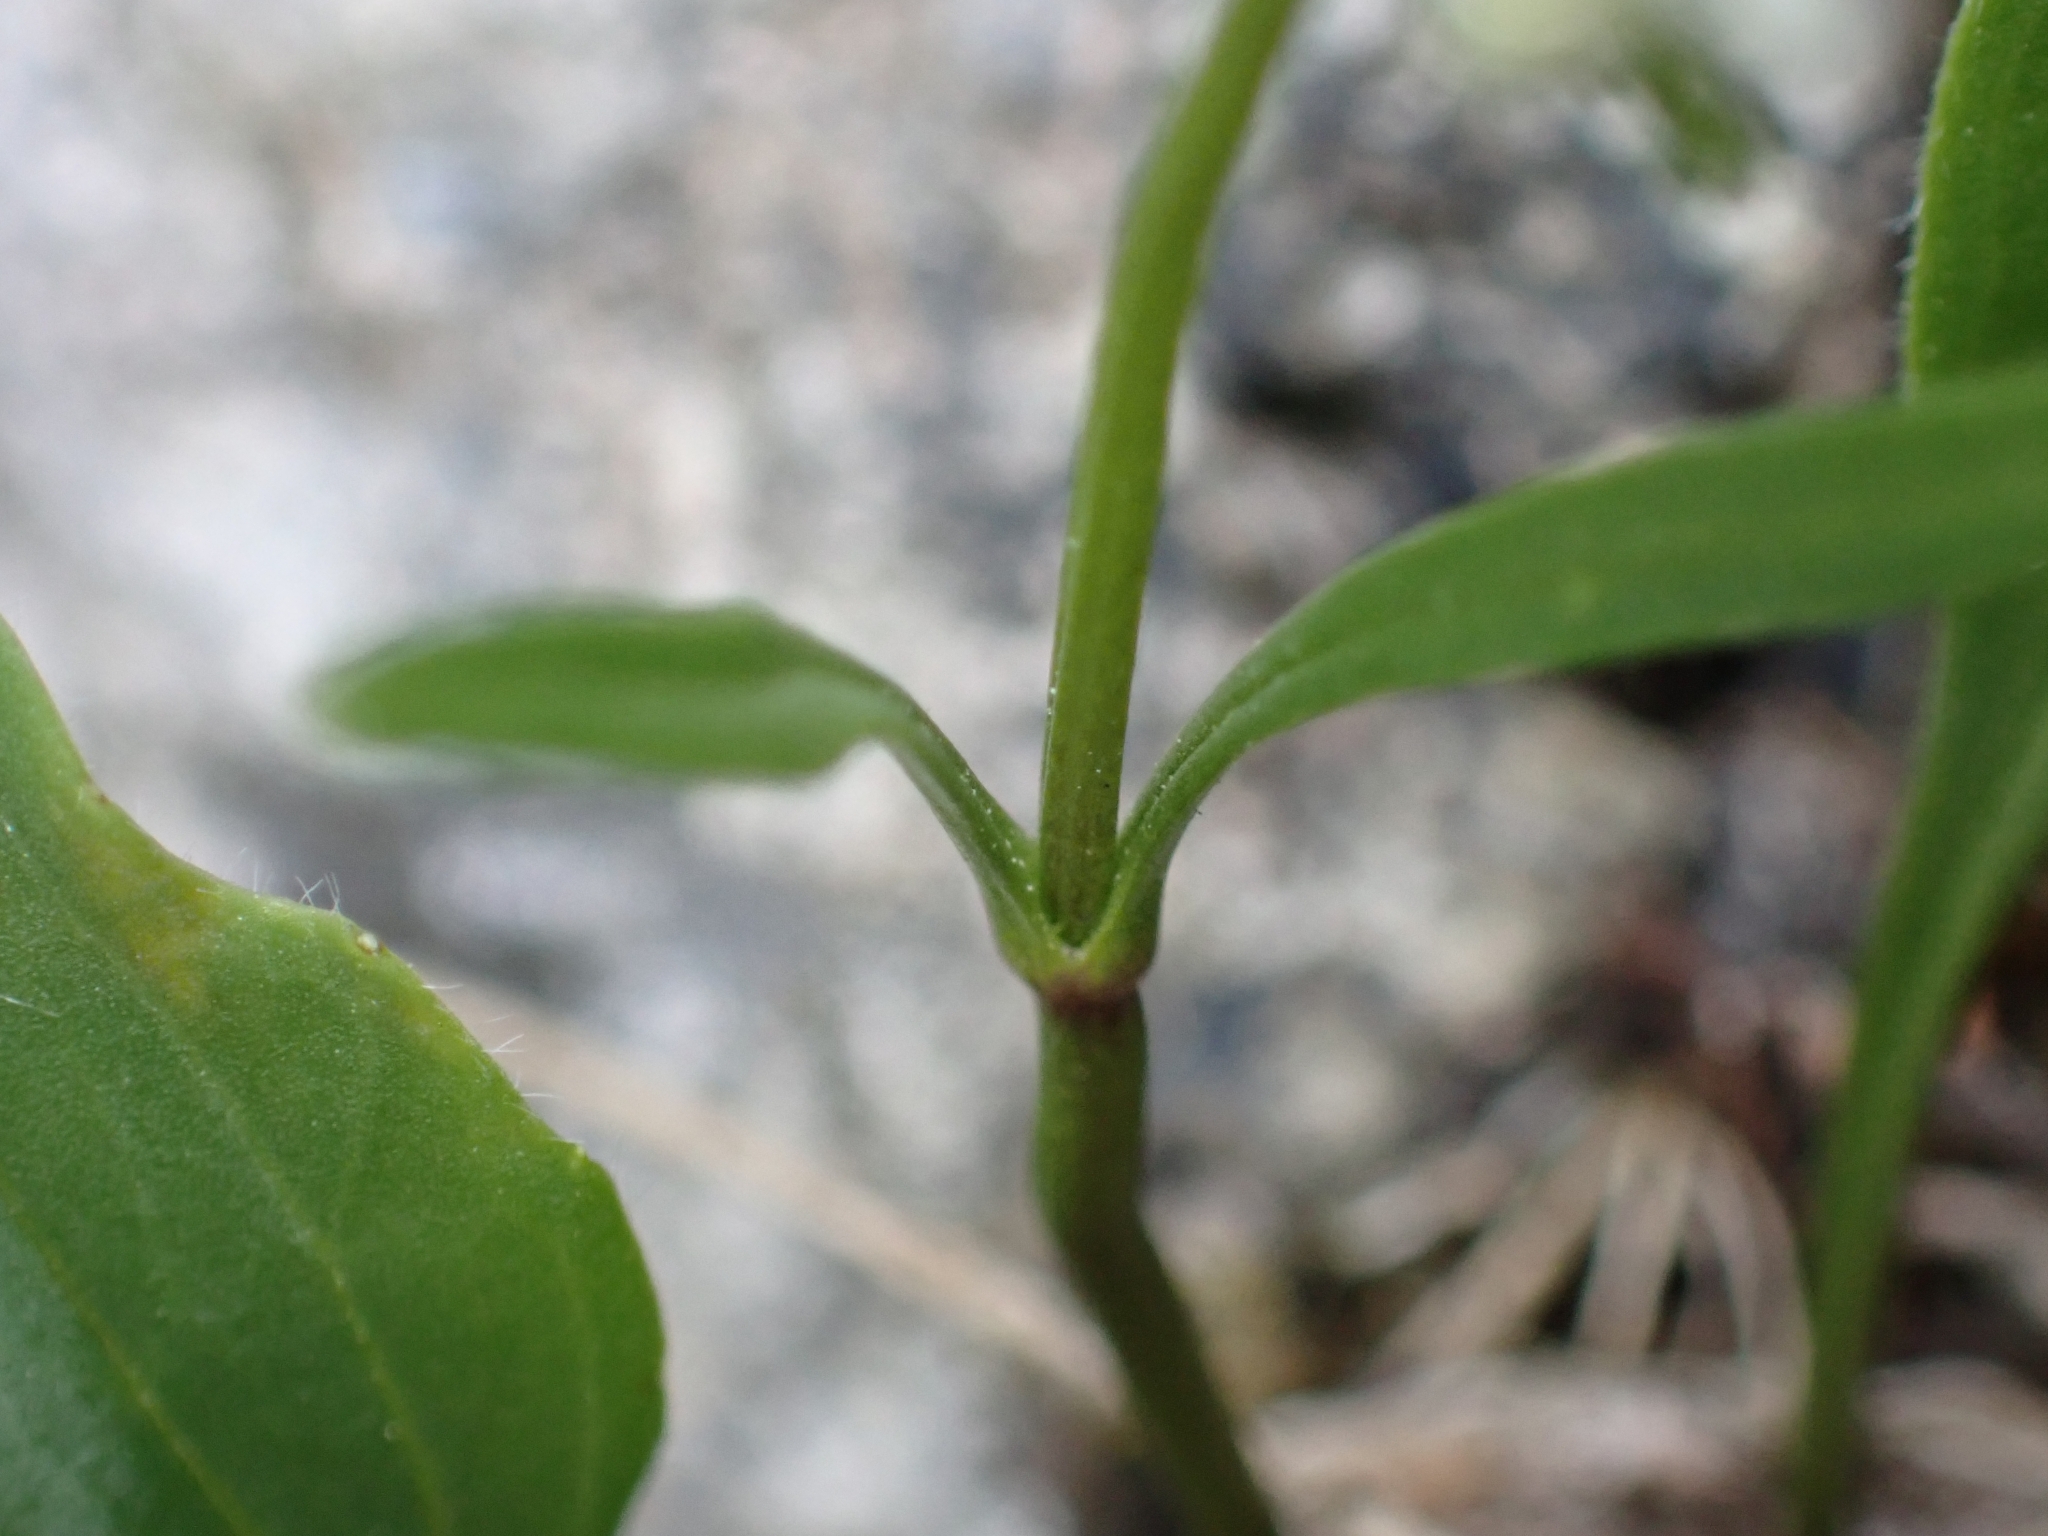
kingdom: Plantae
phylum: Tracheophyta
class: Magnoliopsida
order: Dipsacales
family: Caprifoliaceae
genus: Valeriana
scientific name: Valeriana saxatilis
